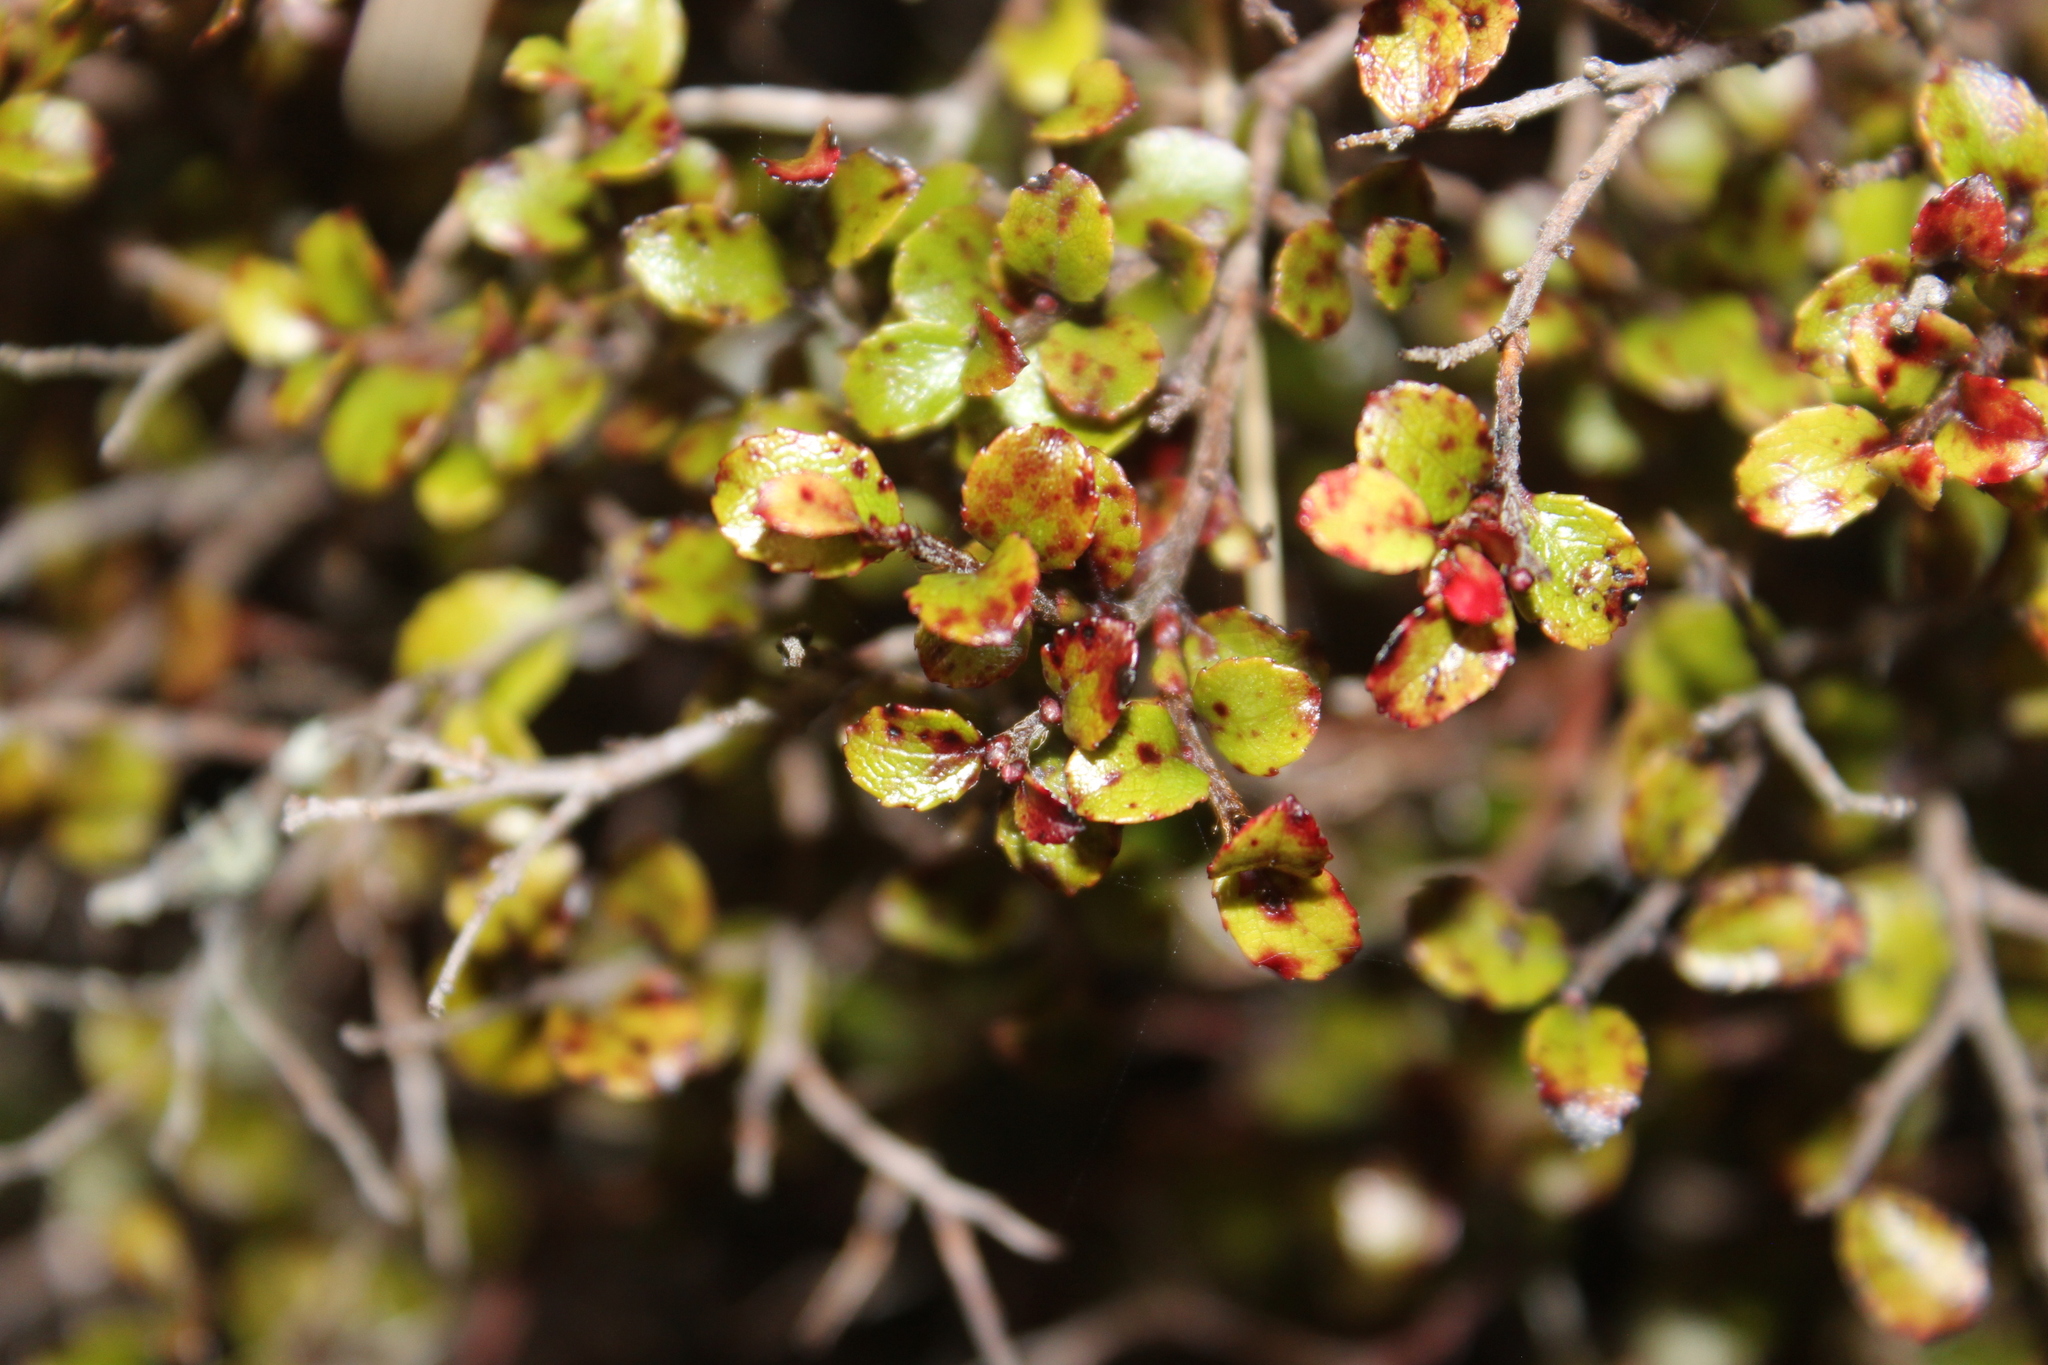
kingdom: Plantae
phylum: Tracheophyta
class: Magnoliopsida
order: Ericales
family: Ericaceae
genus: Gaultheria
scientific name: Gaultheria antipoda
